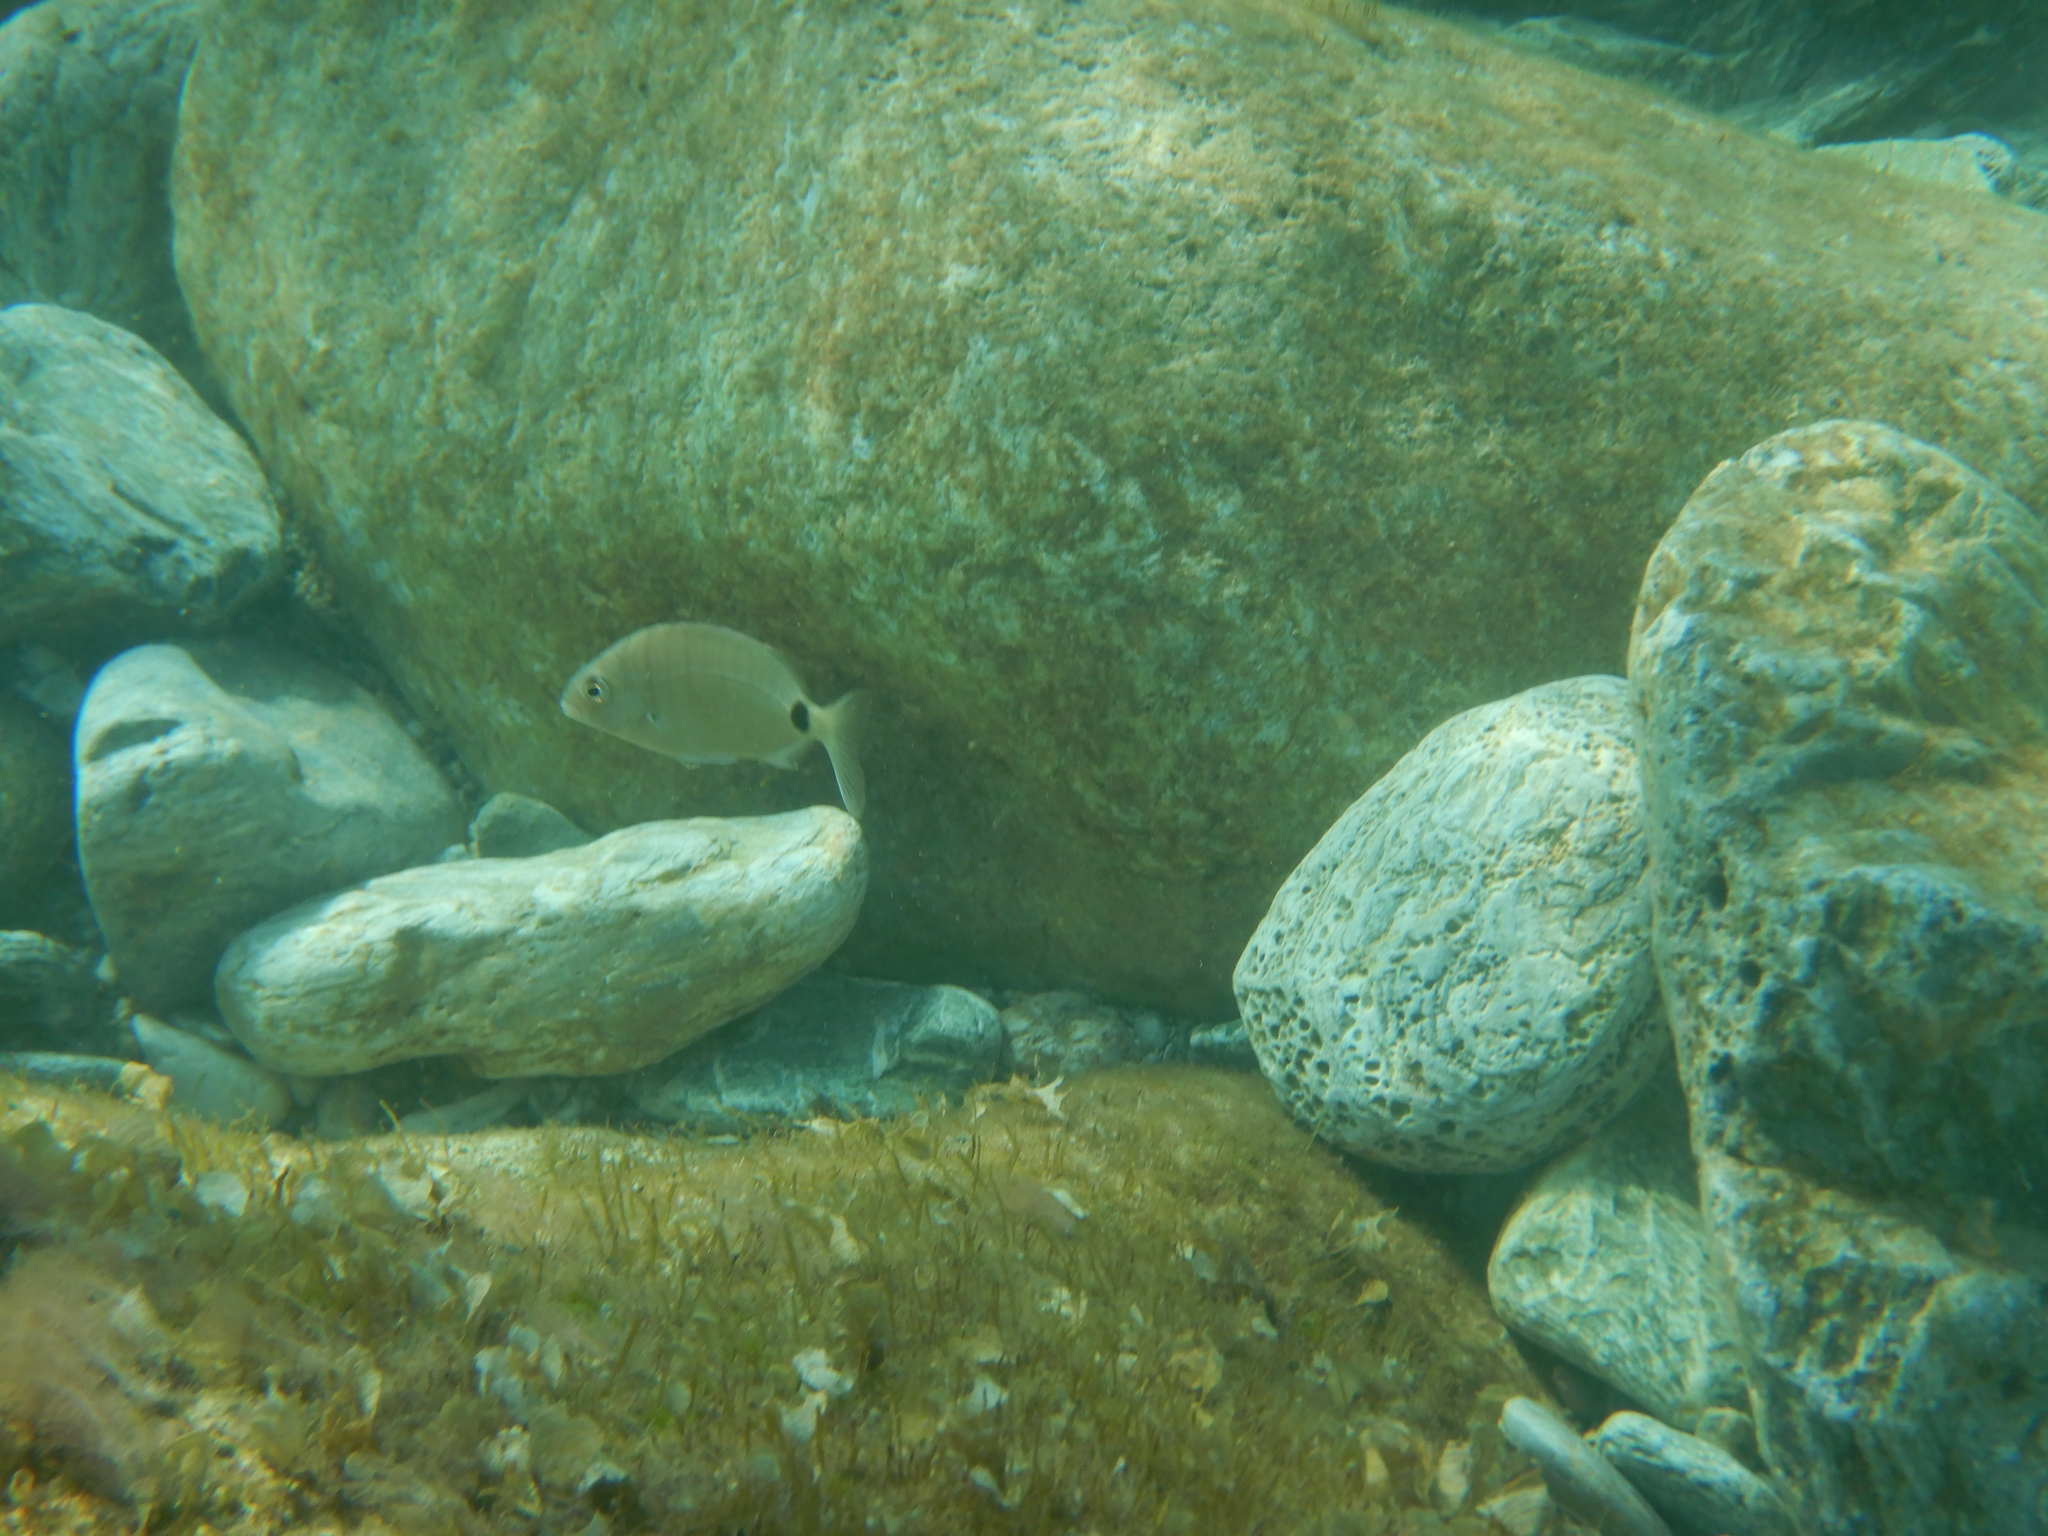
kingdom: Animalia
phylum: Chordata
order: Perciformes
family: Sparidae
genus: Diplodus
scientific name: Diplodus sargus
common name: White seabream
